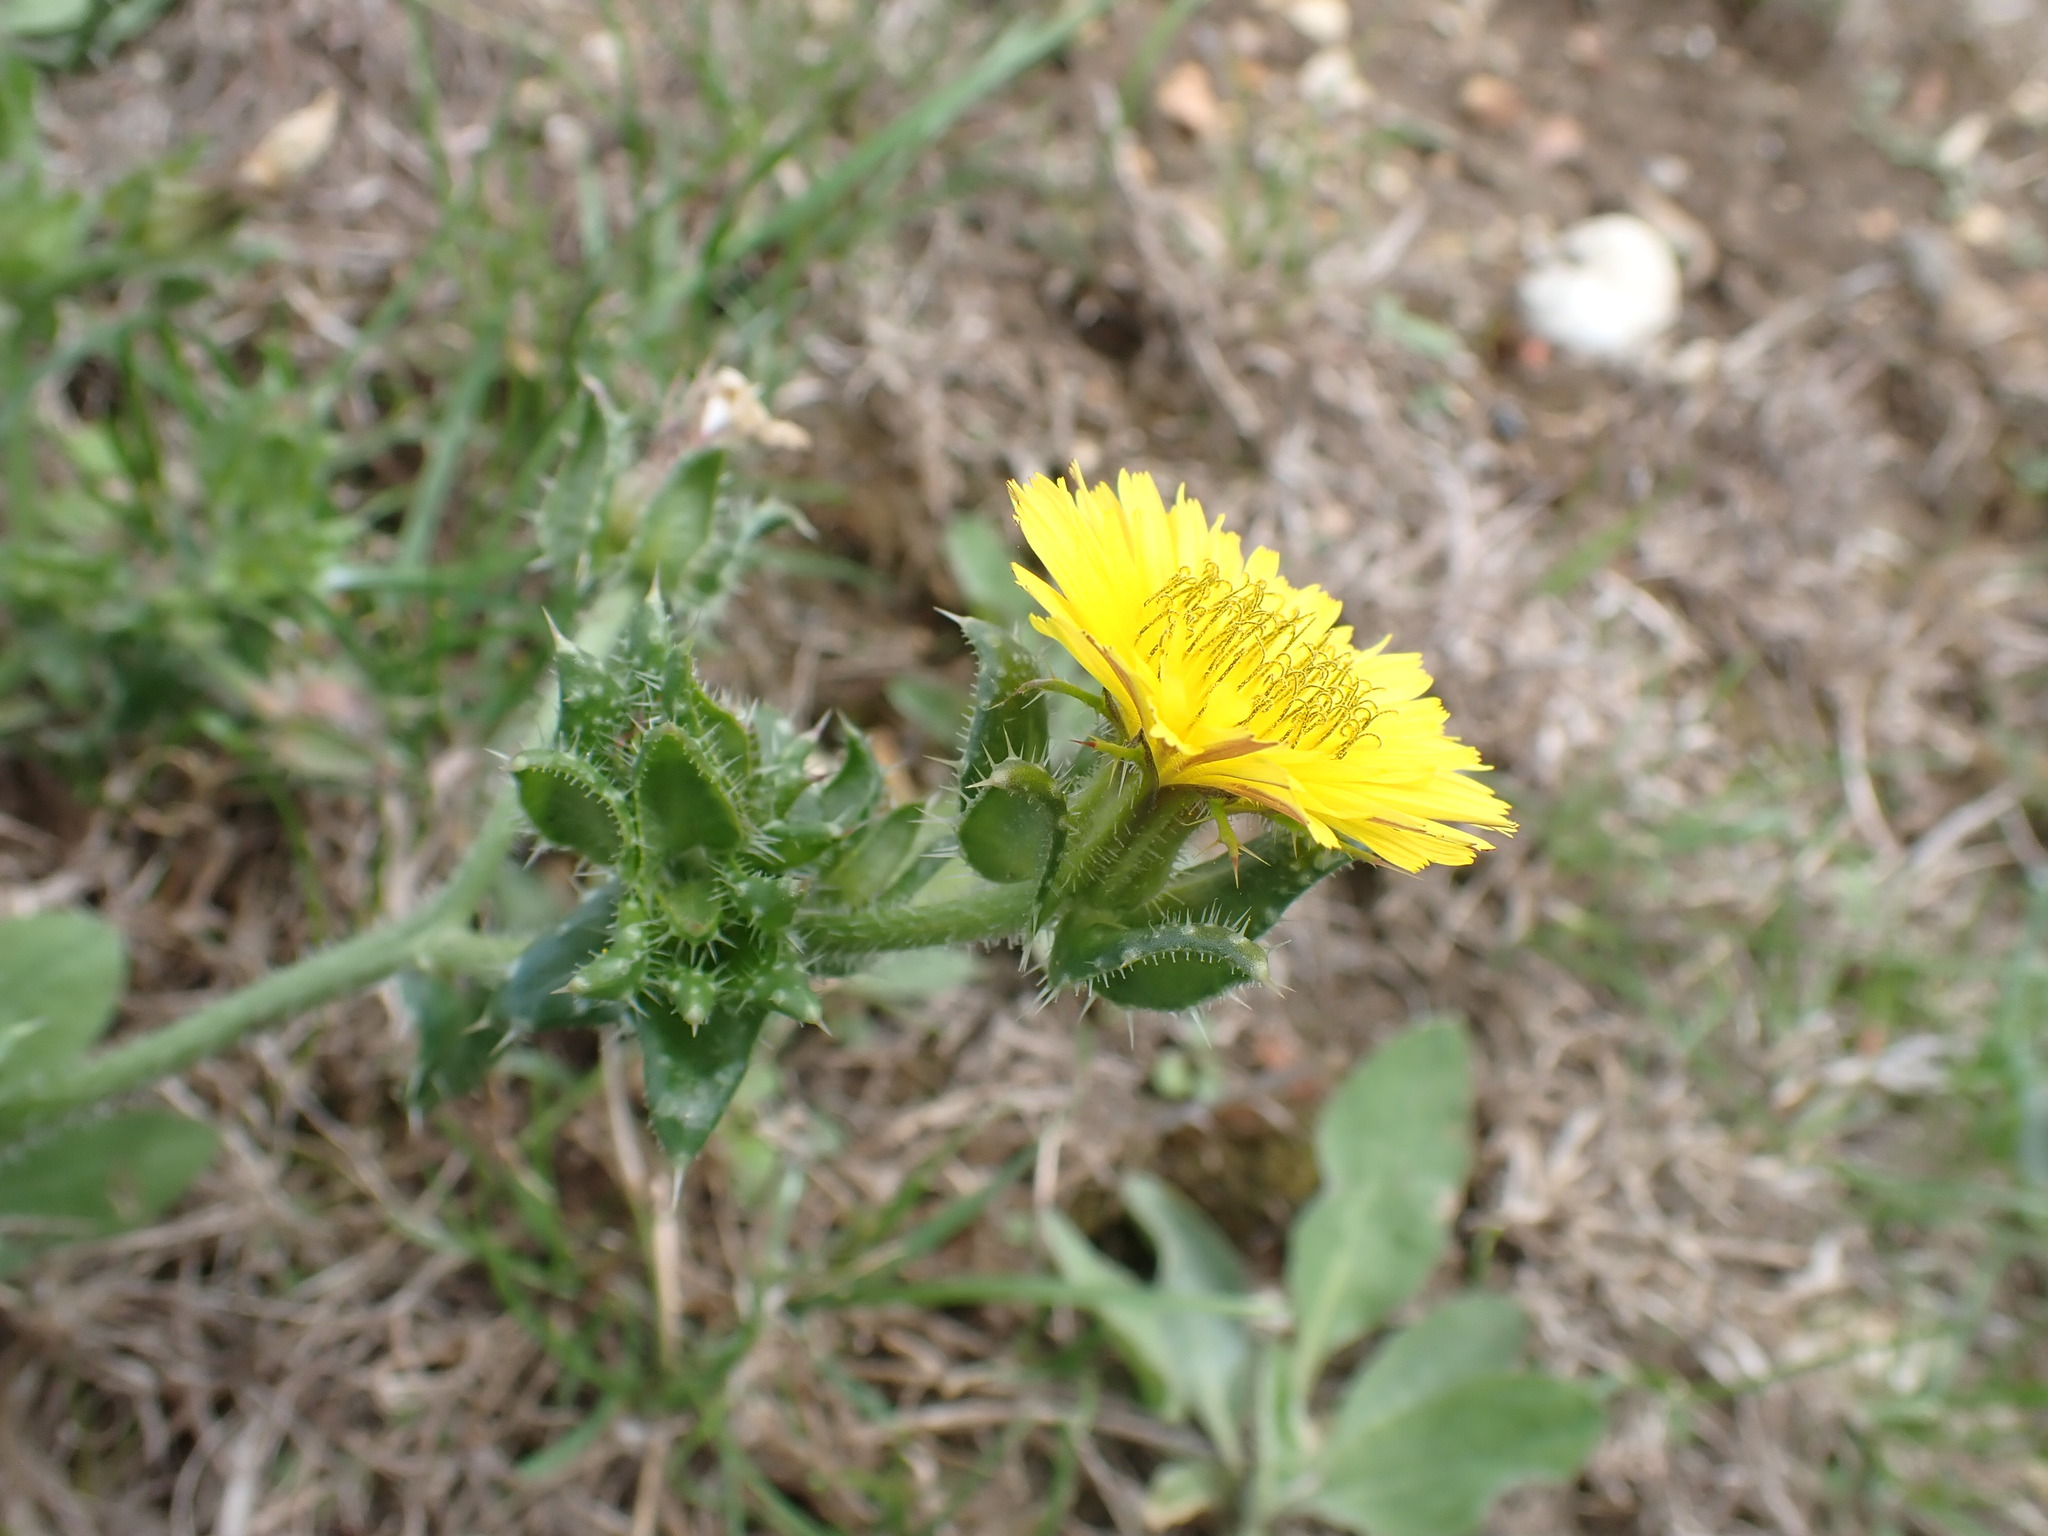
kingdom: Plantae
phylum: Tracheophyta
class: Magnoliopsida
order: Asterales
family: Asteraceae
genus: Helminthotheca
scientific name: Helminthotheca echioides
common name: Ox-tongue
